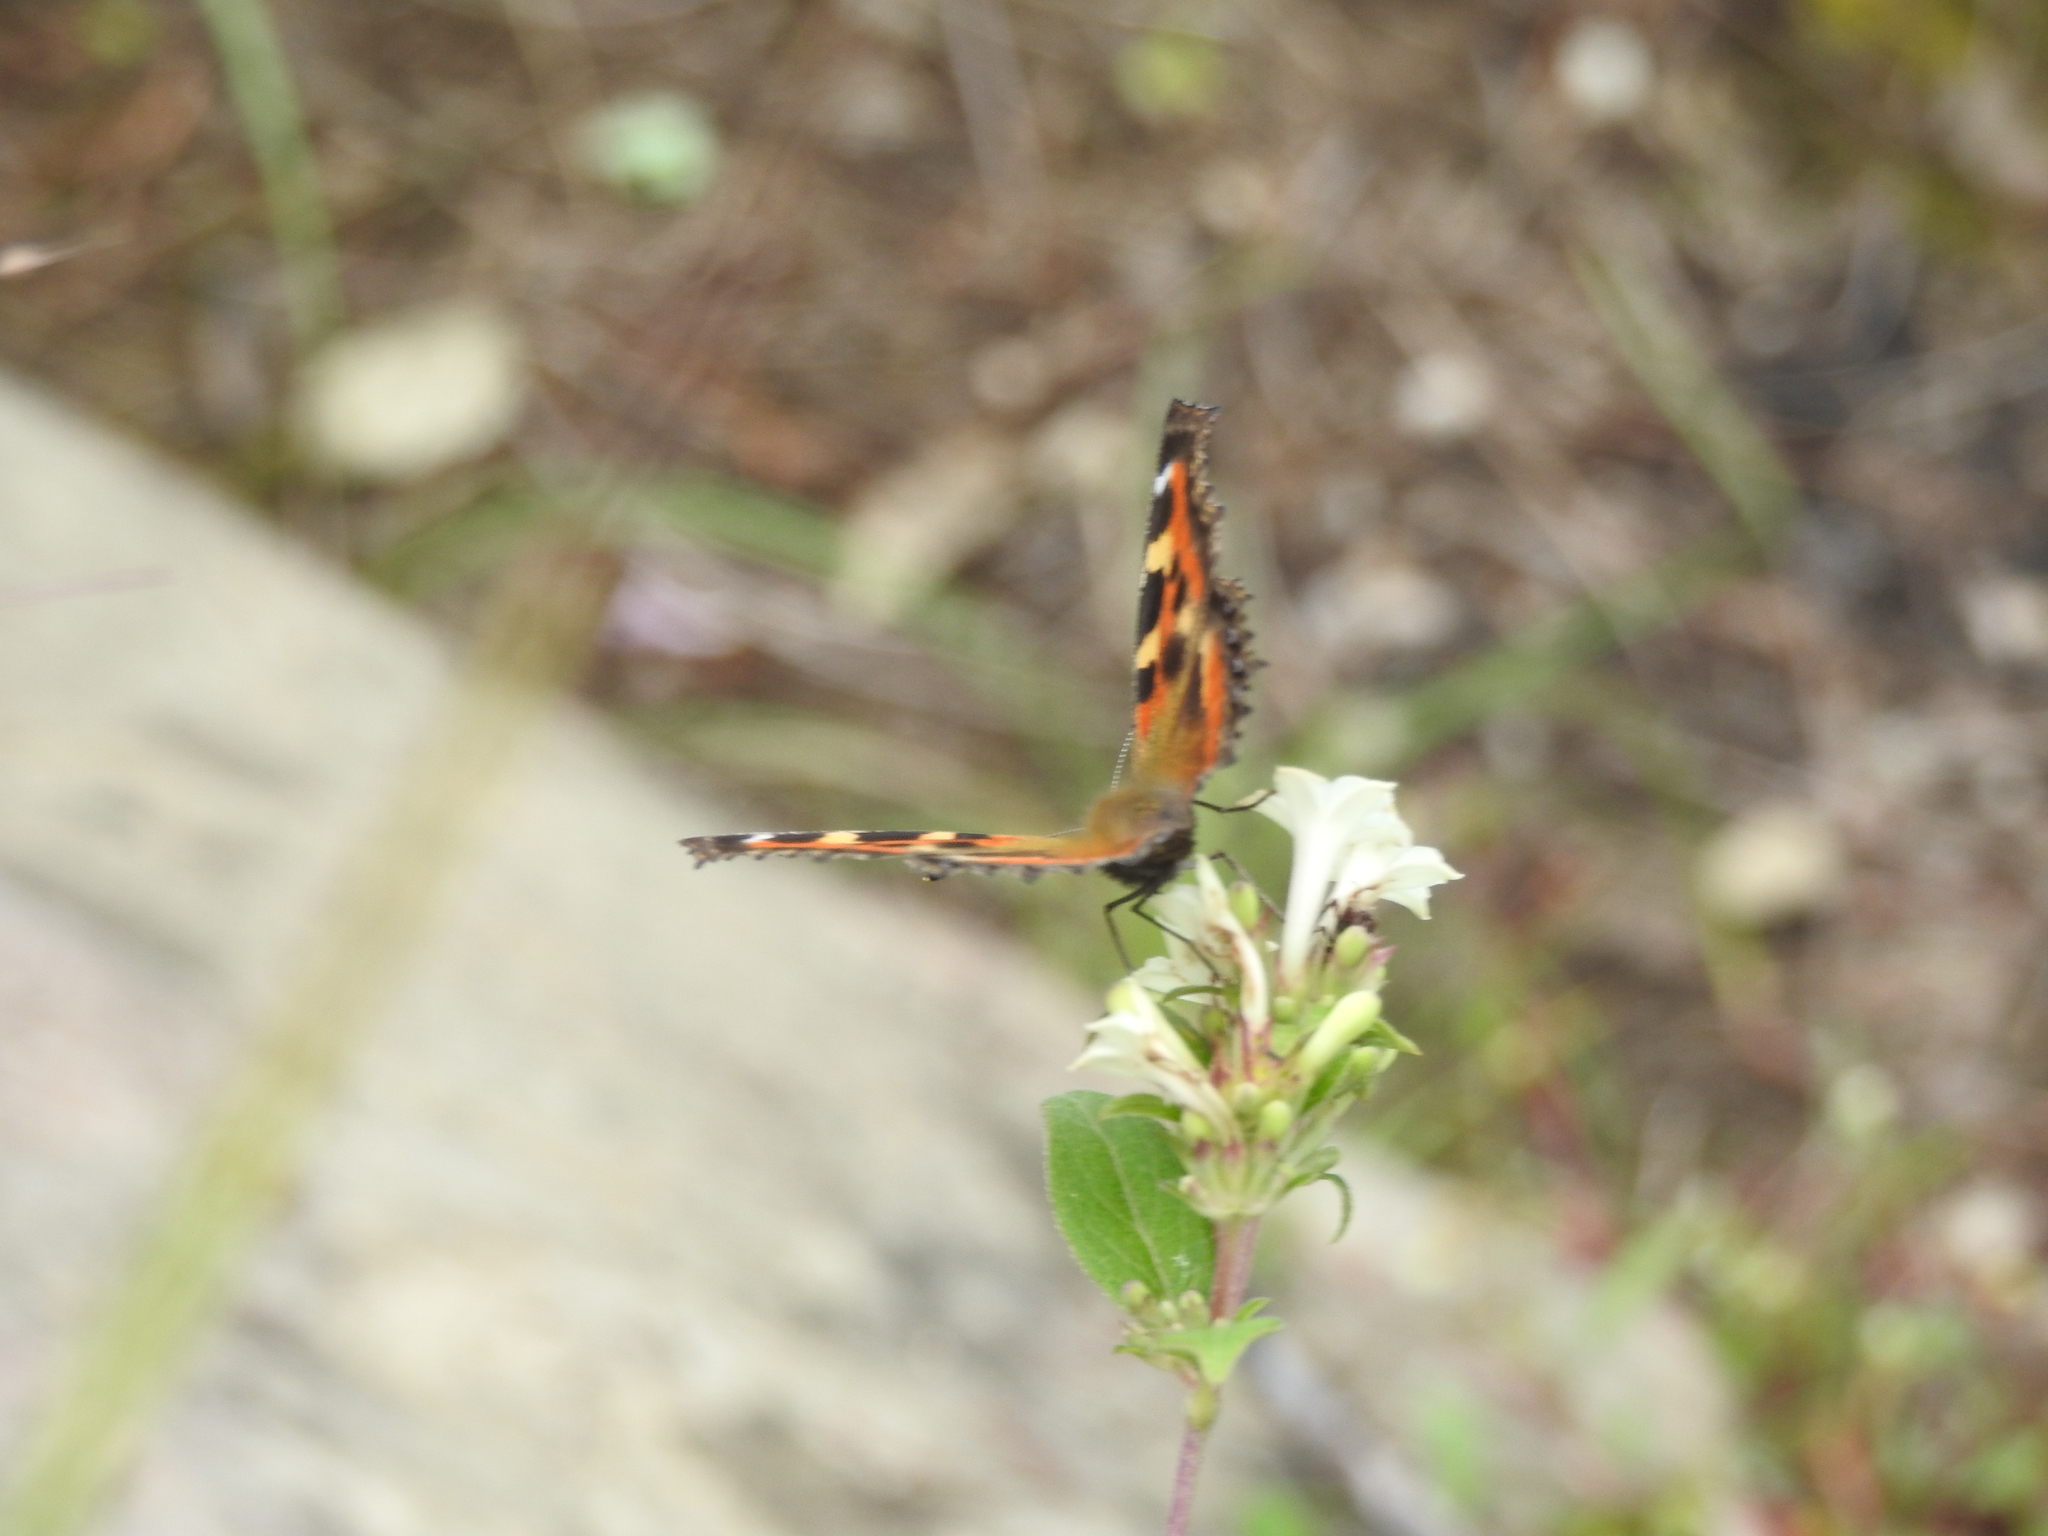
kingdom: Animalia
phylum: Arthropoda
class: Insecta
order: Lepidoptera
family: Nymphalidae
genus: Aglais
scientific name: Aglais caschmirensis
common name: Indian tortoiseshell
